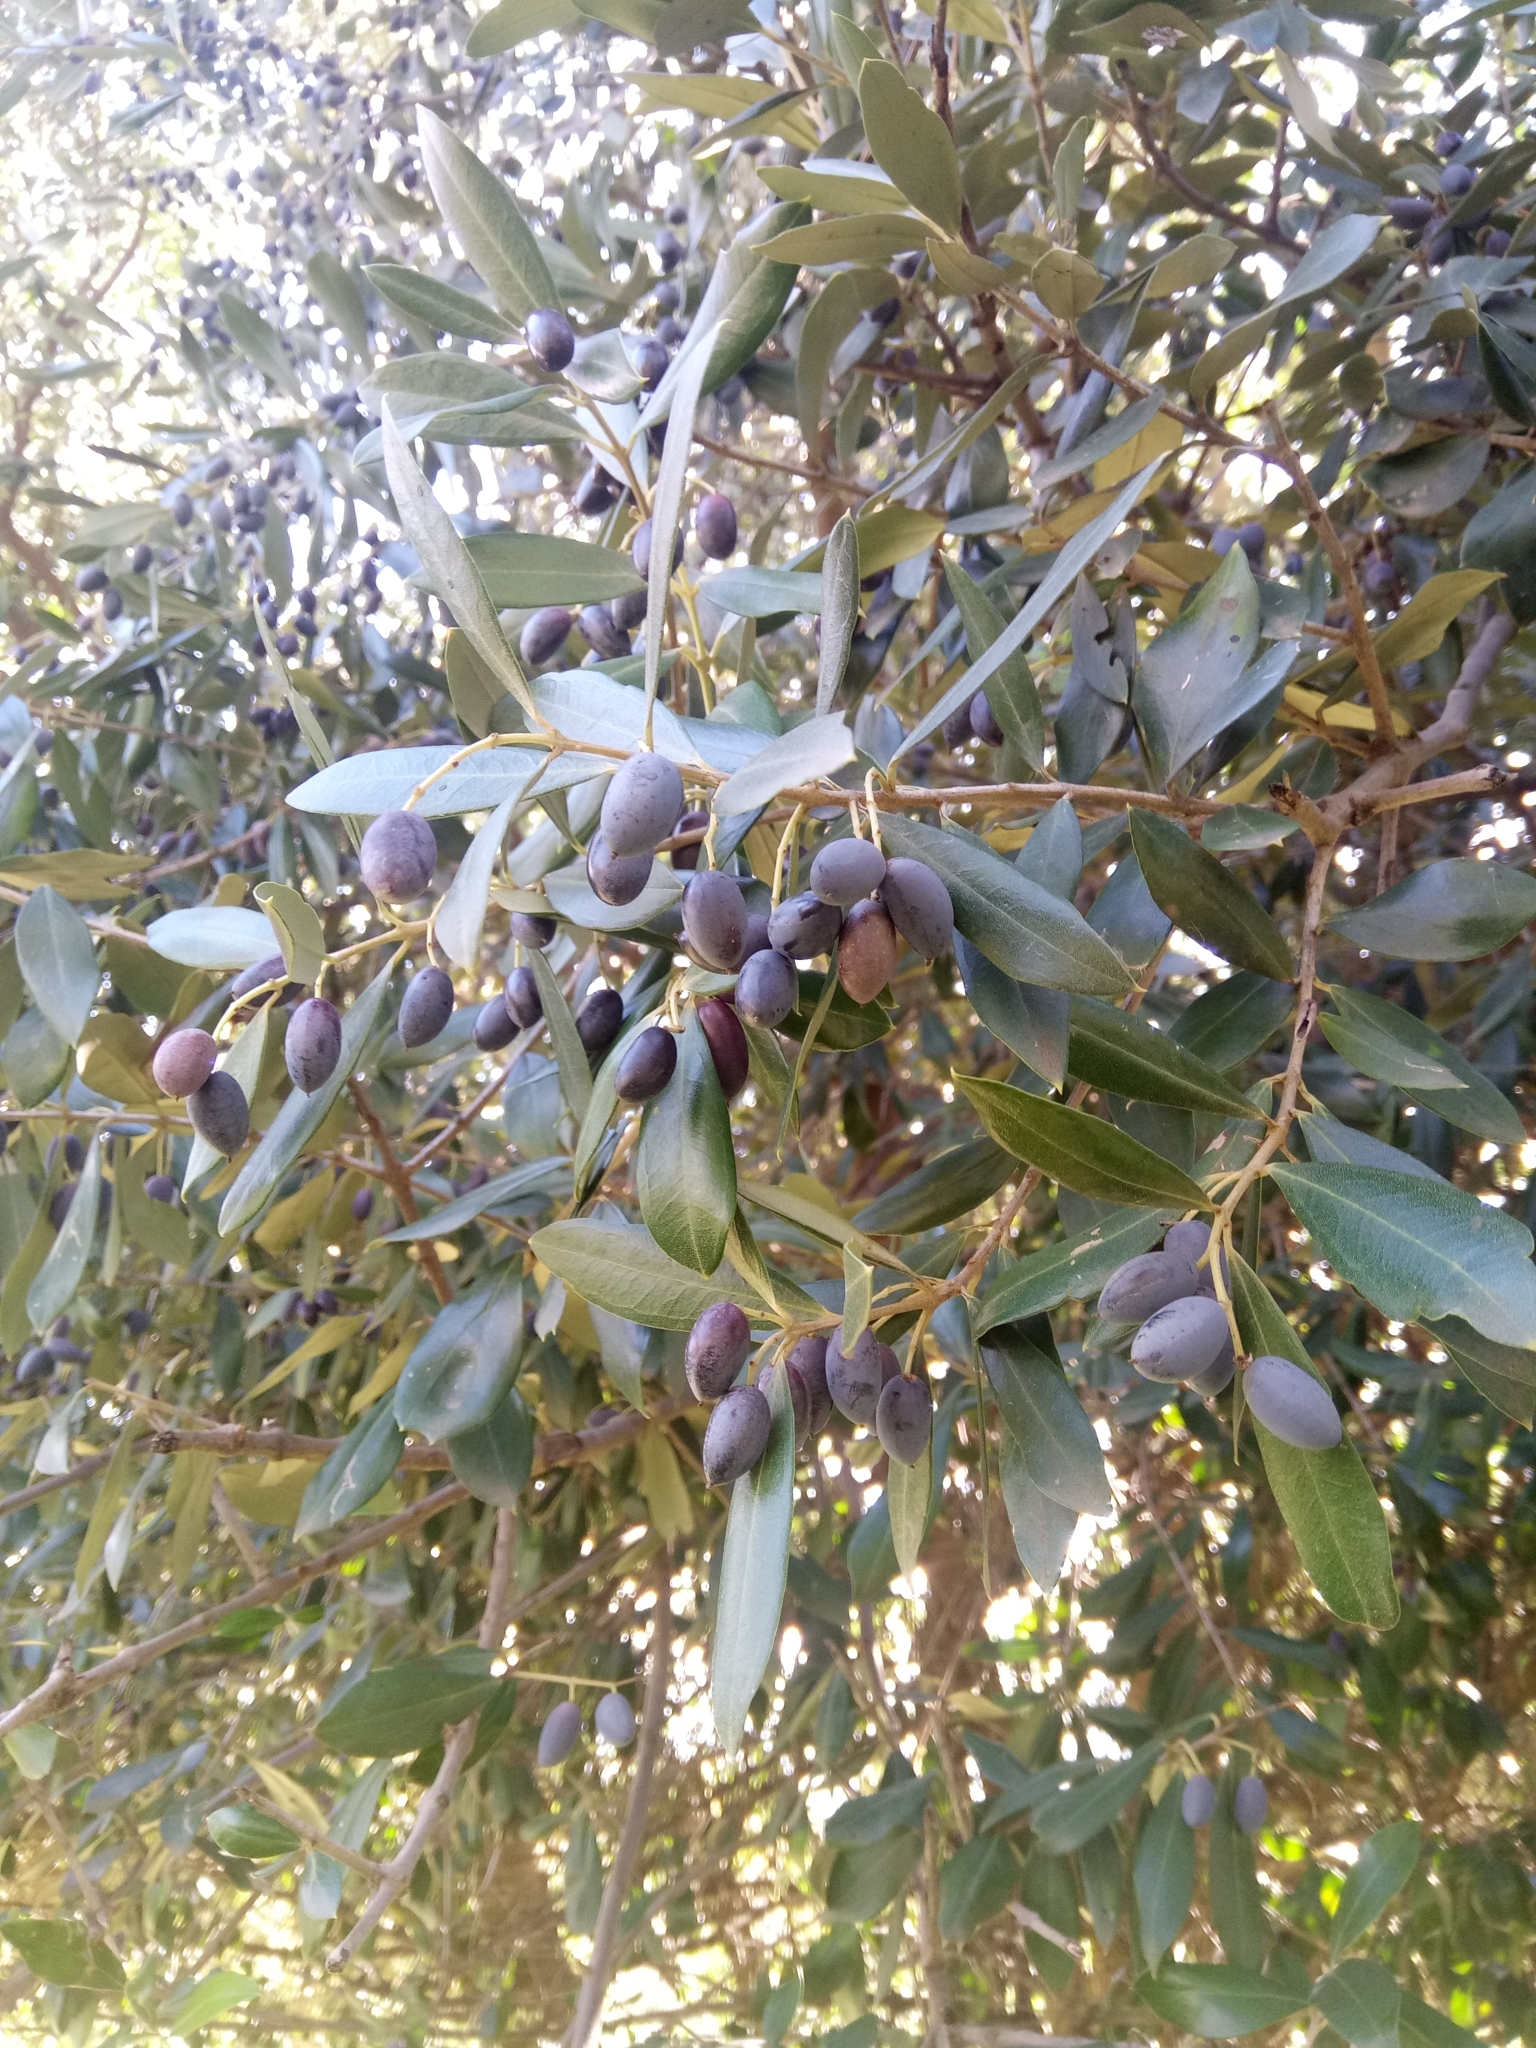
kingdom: Plantae
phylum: Tracheophyta
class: Magnoliopsida
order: Lamiales
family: Oleaceae
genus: Olea
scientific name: Olea europaea
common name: Olive
